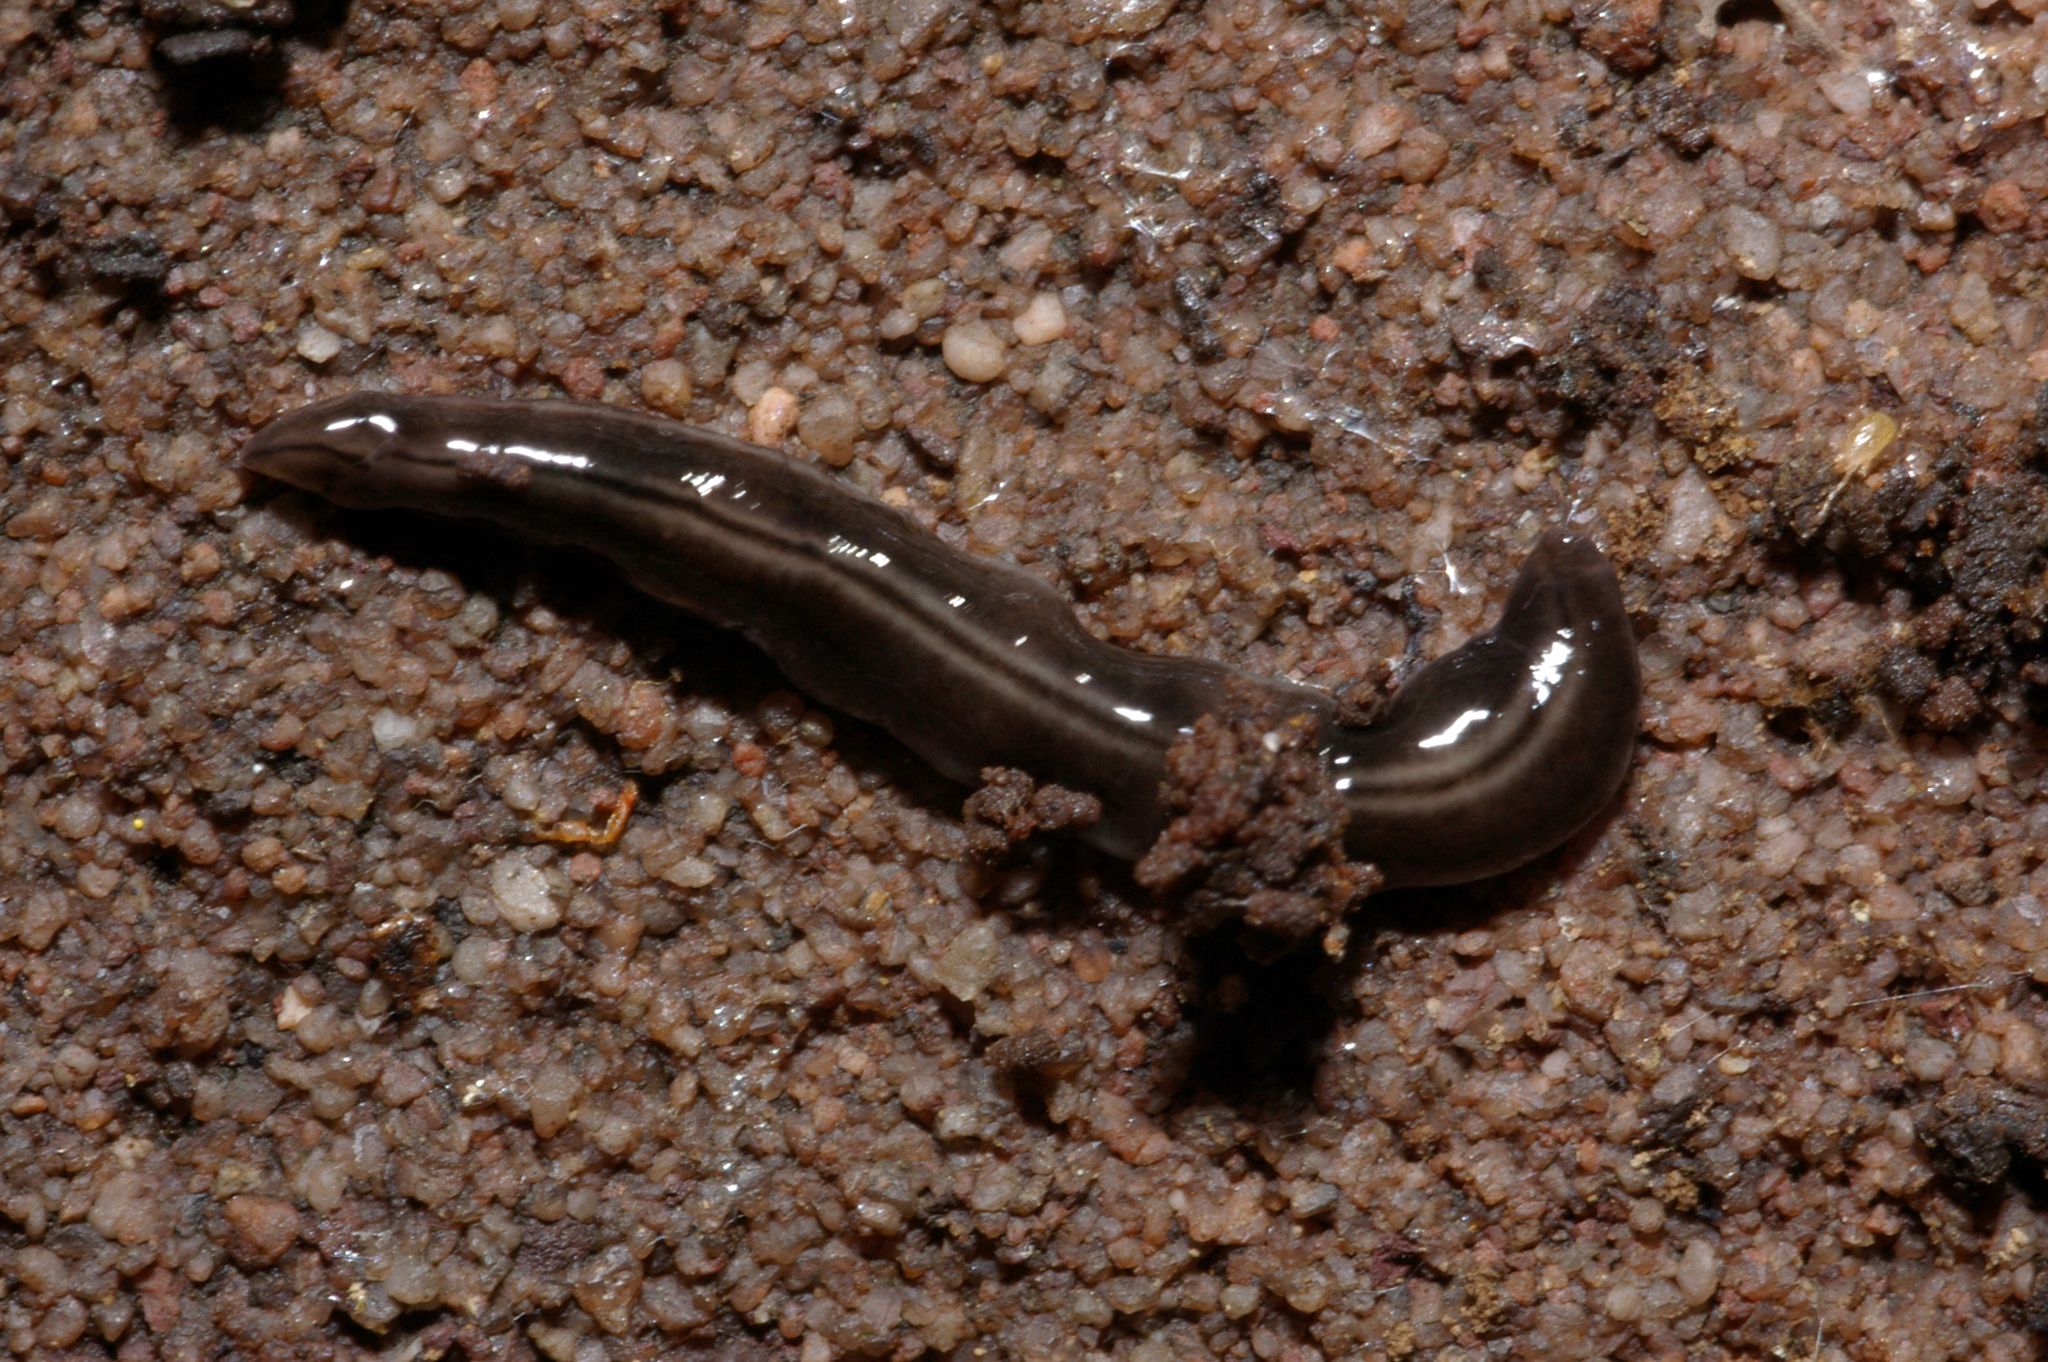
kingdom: Animalia
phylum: Platyhelminthes
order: Tricladida
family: Geoplanidae
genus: Parakontikia
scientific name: Parakontikia ventrolineata
